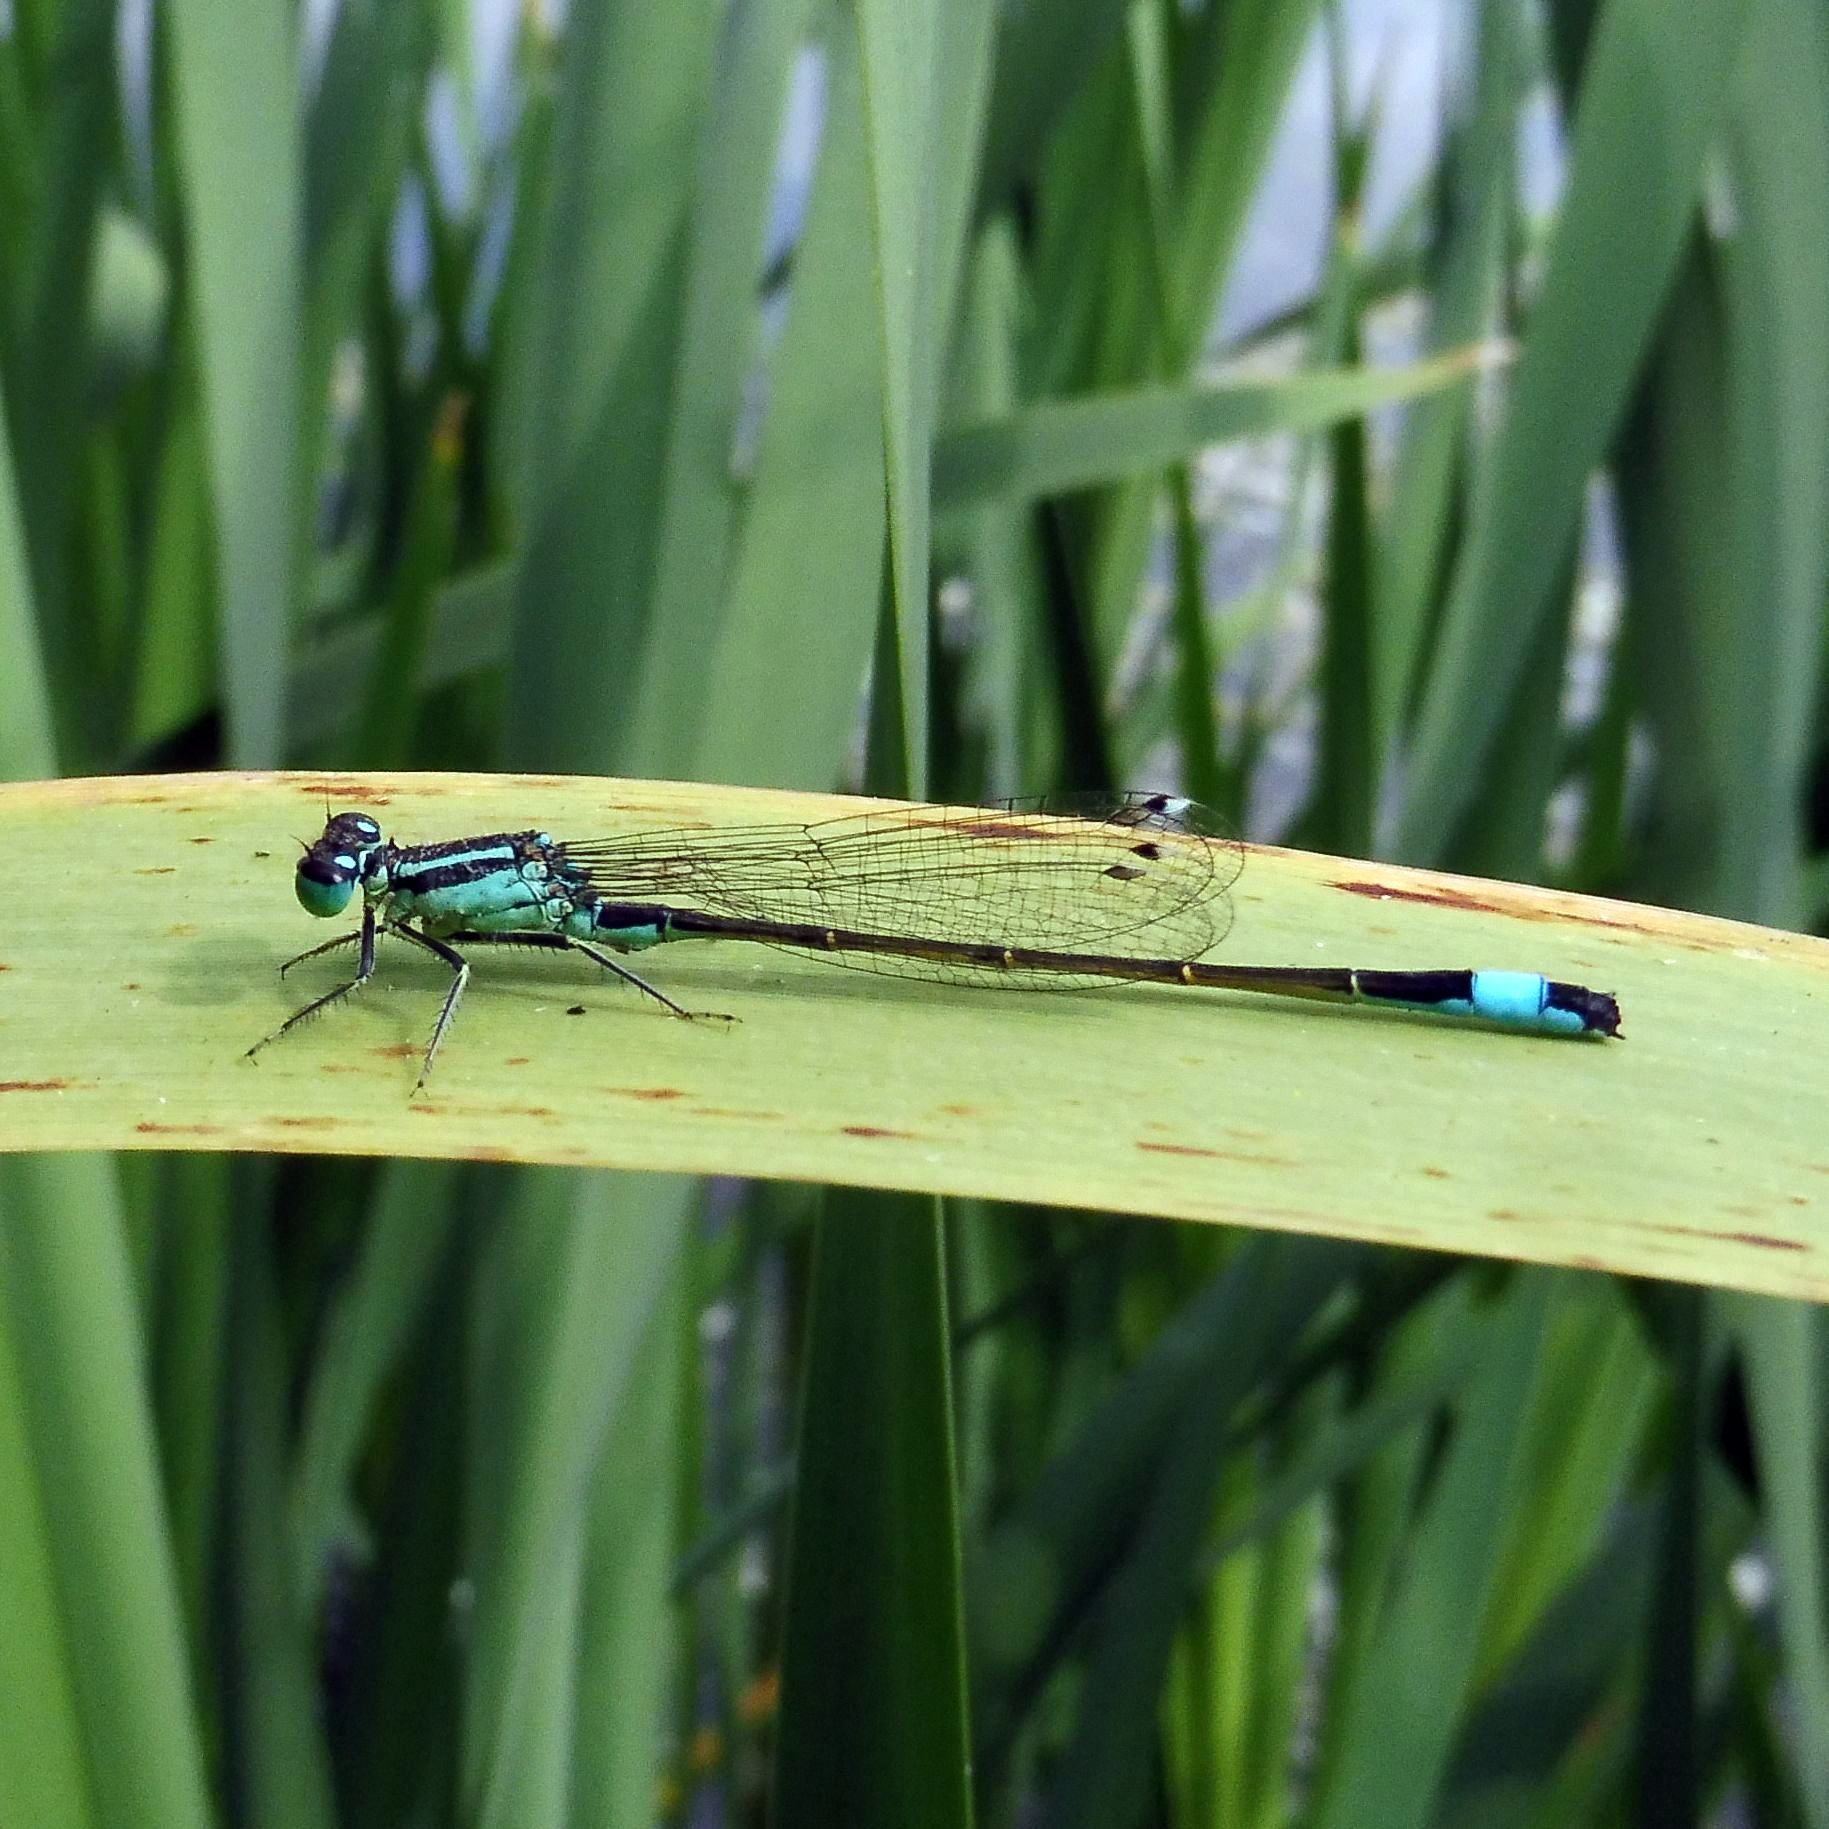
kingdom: Animalia
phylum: Arthropoda
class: Insecta
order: Odonata
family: Coenagrionidae
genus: Ischnura
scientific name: Ischnura elegans
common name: Blue-tailed damselfly
